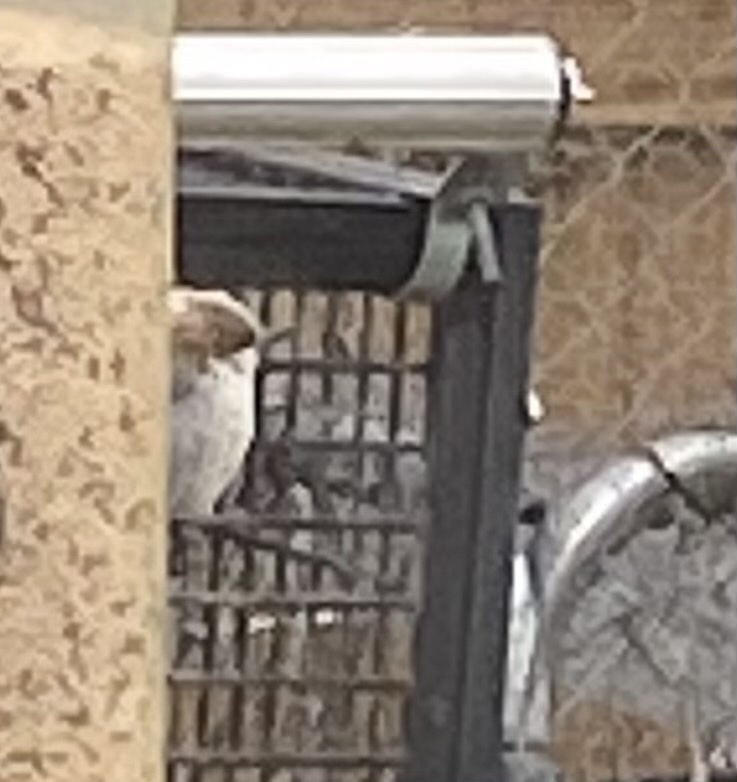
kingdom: Animalia
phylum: Chordata
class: Aves
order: Passeriformes
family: Sittidae
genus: Sitta
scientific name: Sitta pusilla
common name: Brown-headed nuthatch
